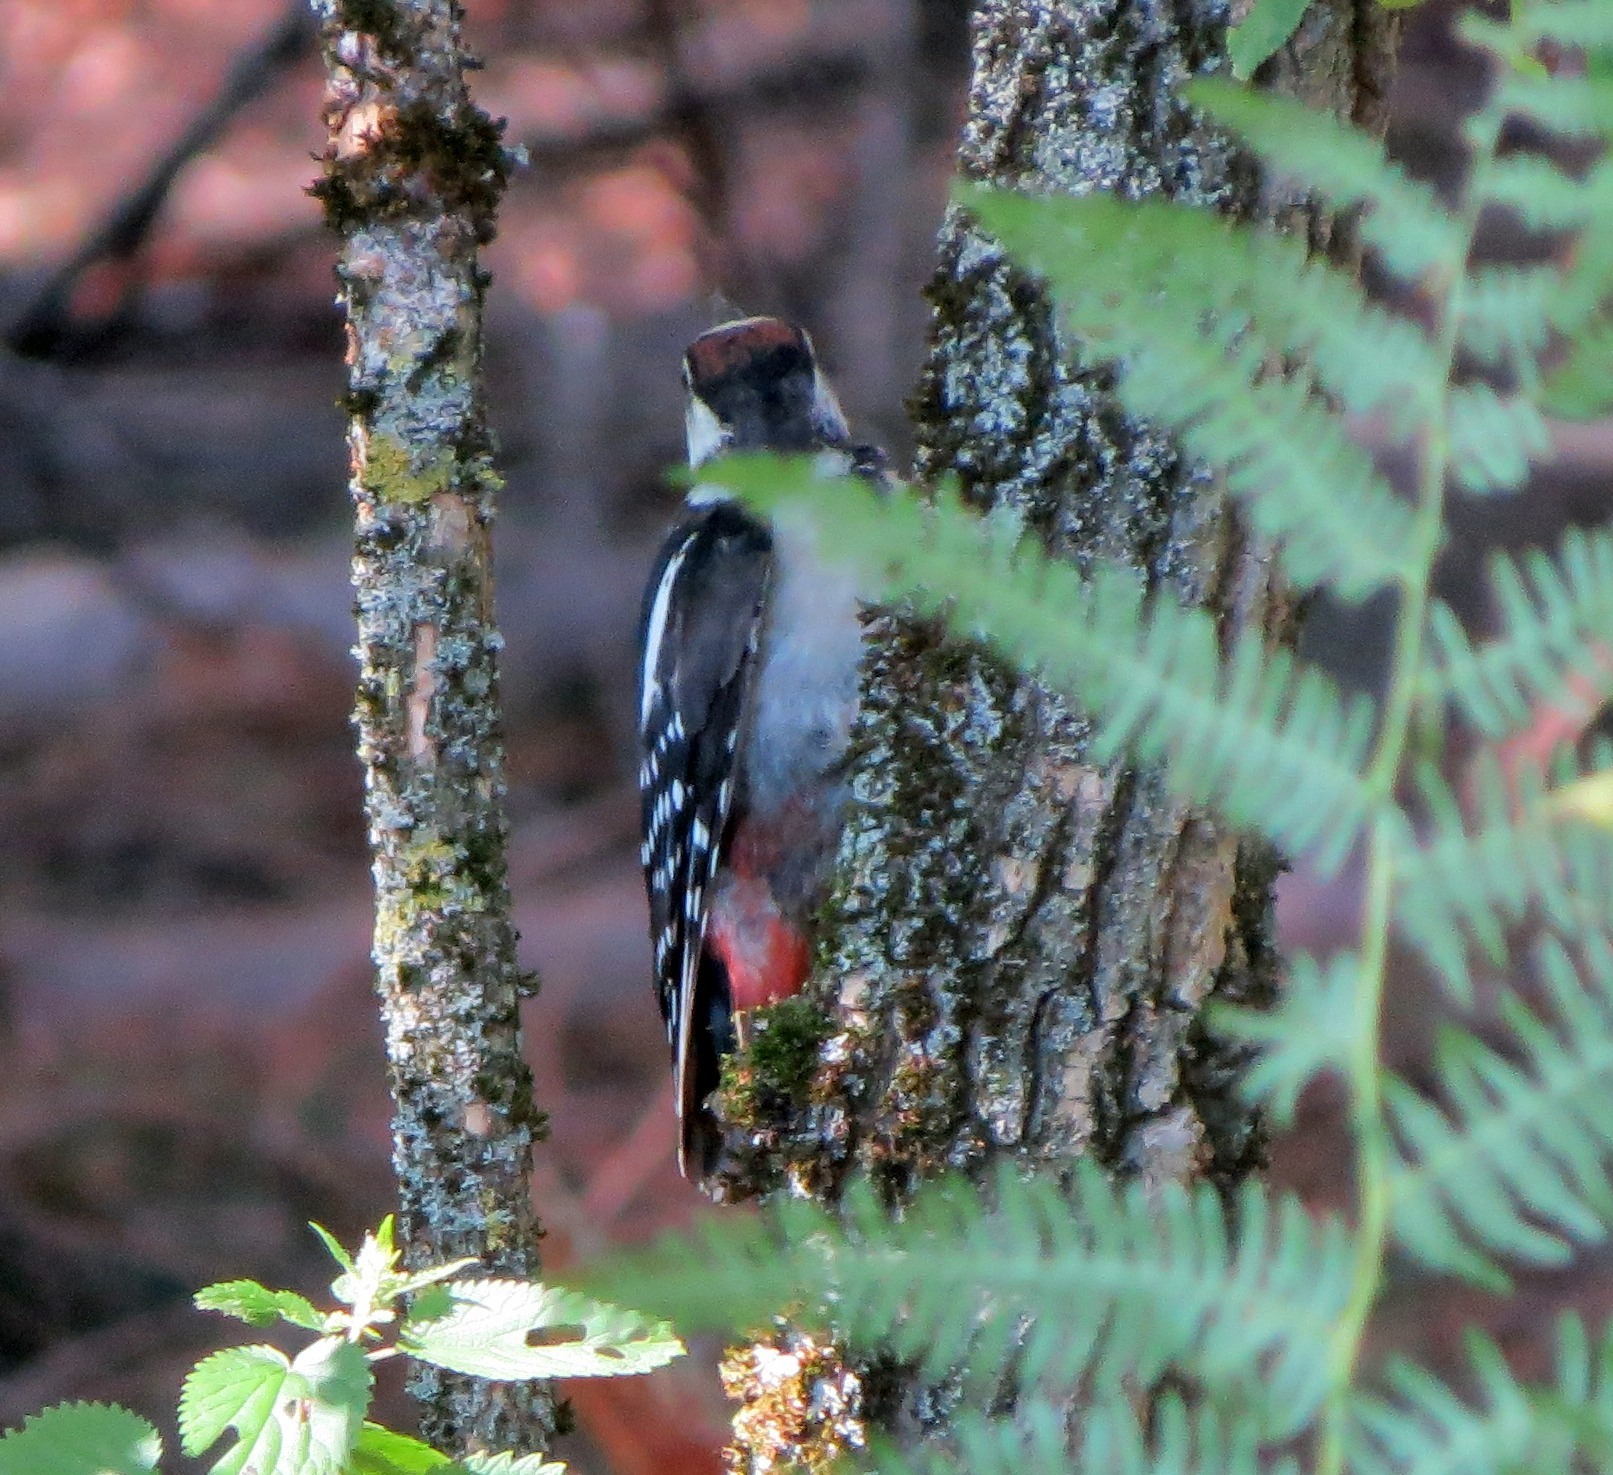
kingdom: Animalia
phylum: Chordata
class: Aves
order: Piciformes
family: Picidae
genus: Dendrocopos
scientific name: Dendrocopos major
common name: Great spotted woodpecker
